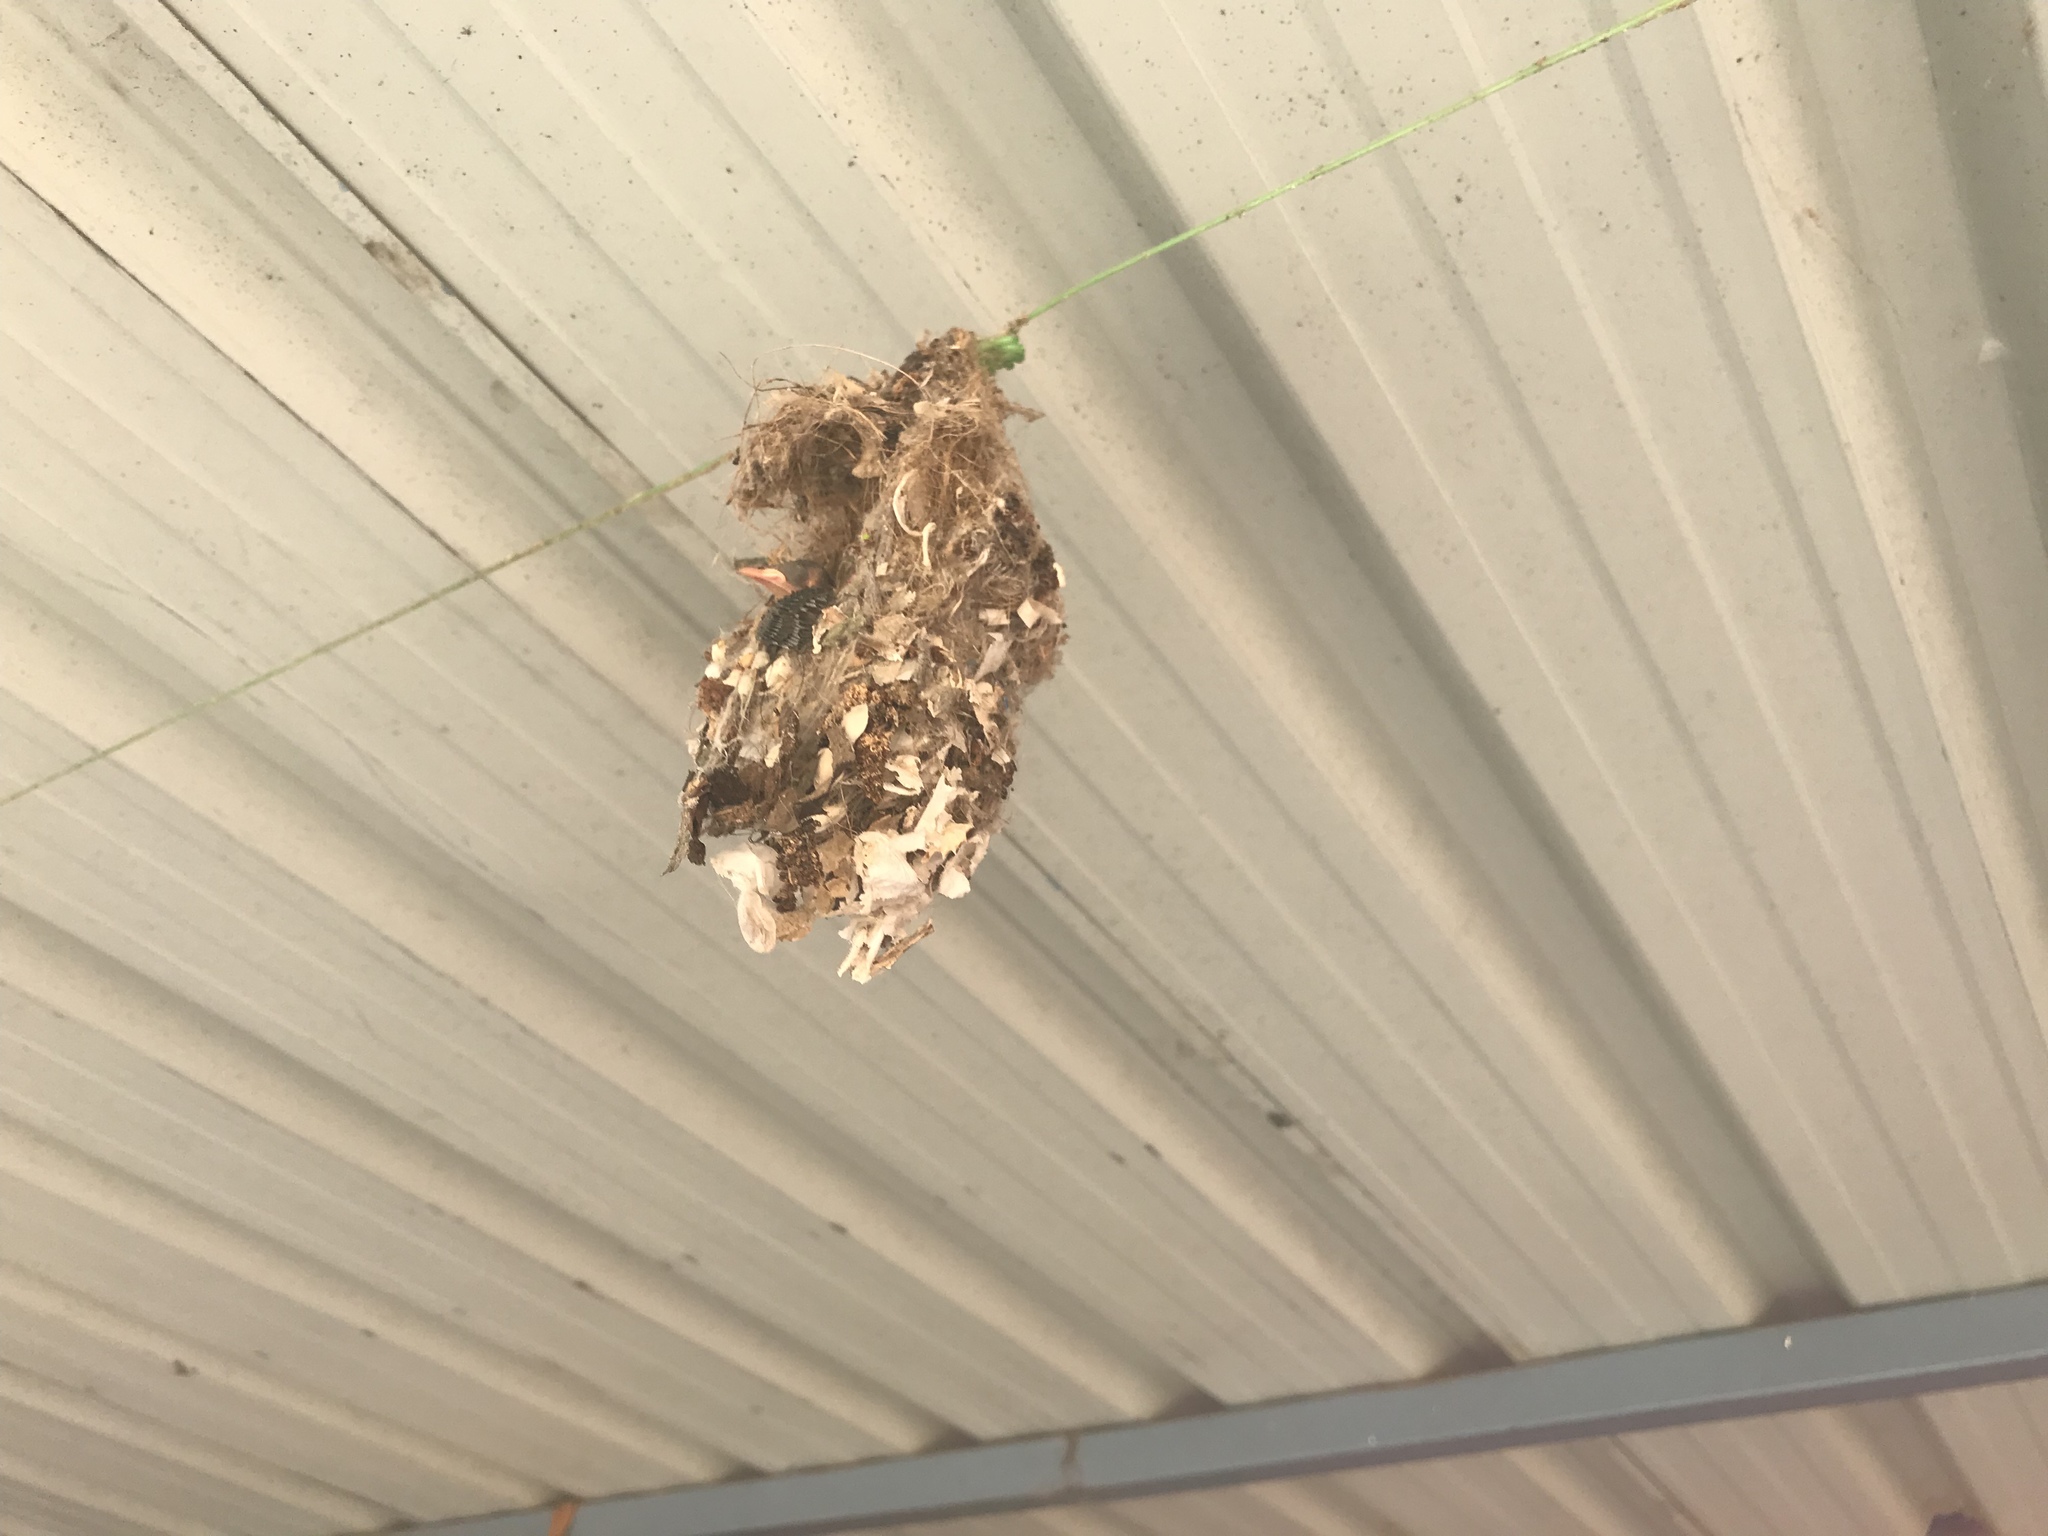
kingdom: Animalia
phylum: Chordata
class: Aves
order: Passeriformes
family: Nectariniidae
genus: Cinnyris
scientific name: Cinnyris asiaticus
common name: Purple sunbird
